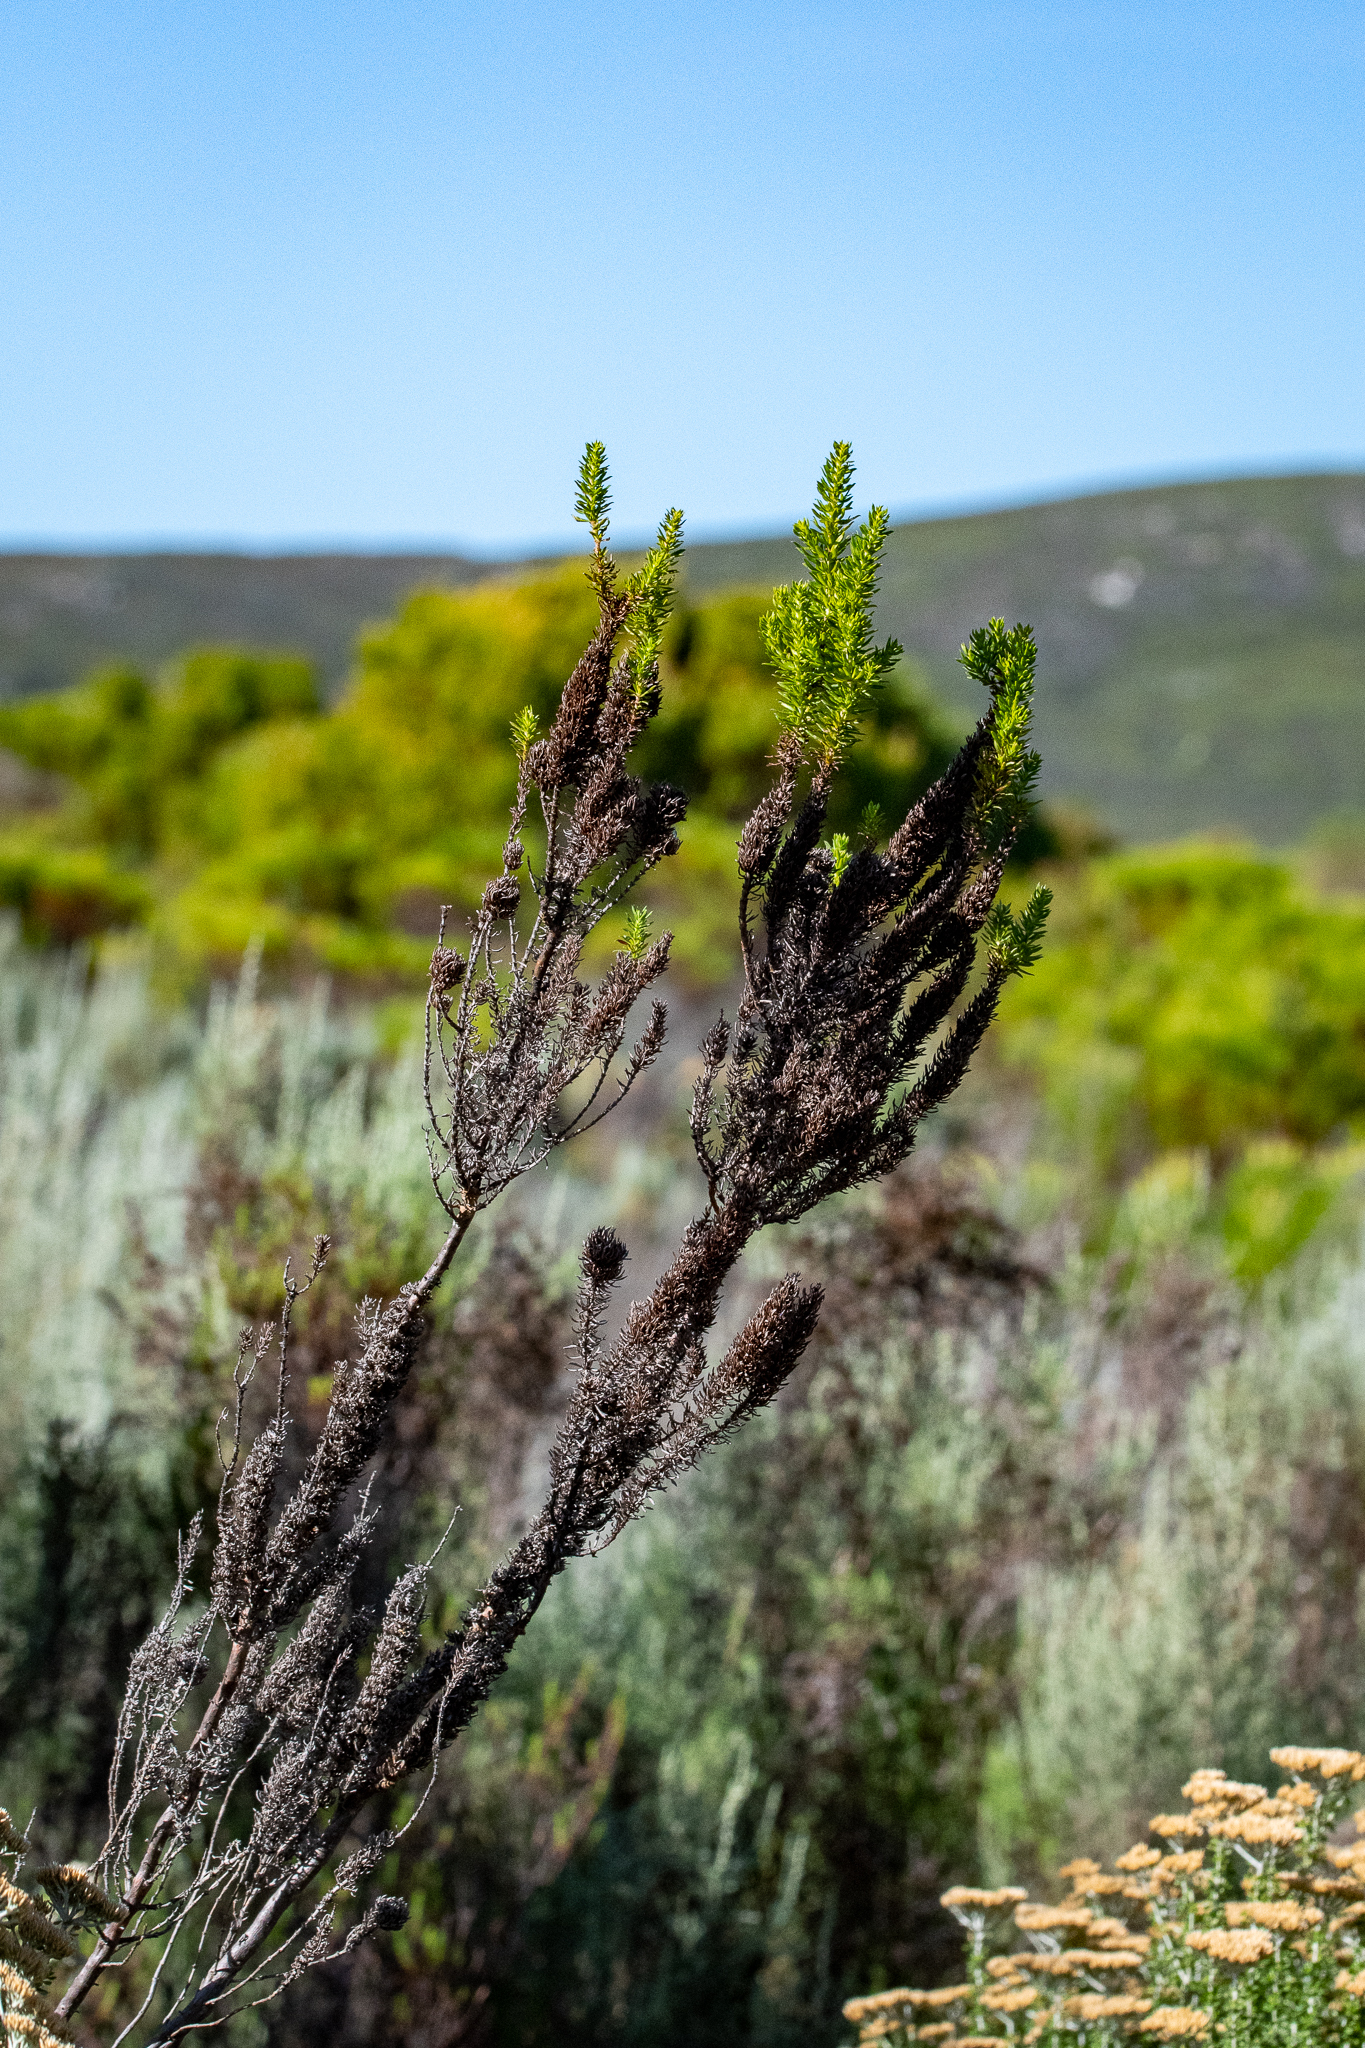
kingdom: Plantae
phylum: Tracheophyta
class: Magnoliopsida
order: Gentianales
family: Rubiaceae
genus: Anthospermum
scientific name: Anthospermum aethiopicum
